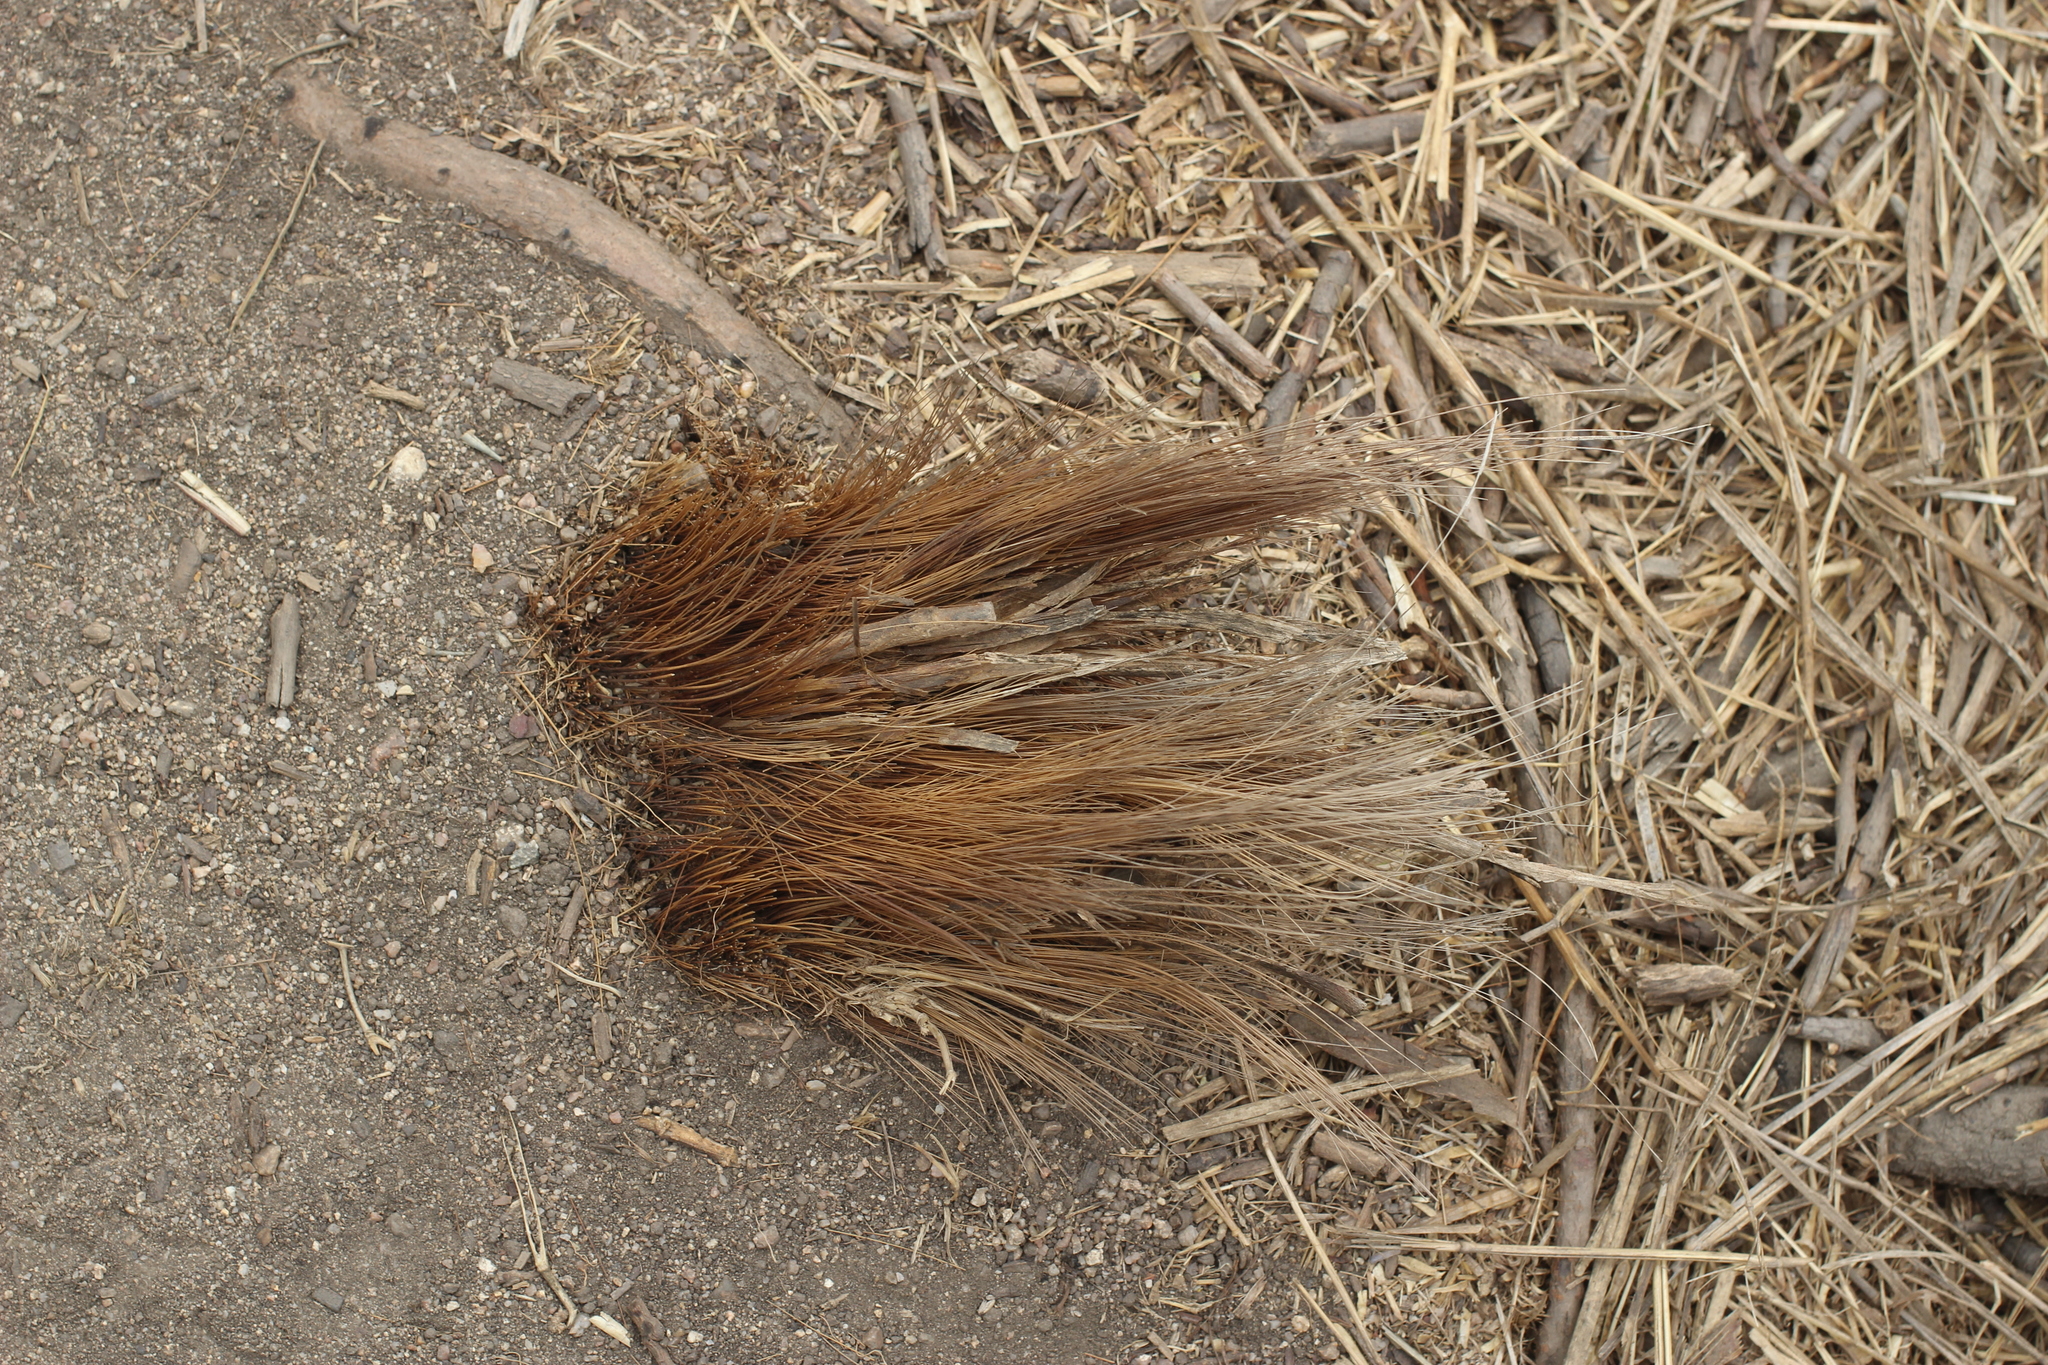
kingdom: Plantae
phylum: Tracheophyta
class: Liliopsida
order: Asparagales
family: Asparagaceae
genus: Chlorogalum
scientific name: Chlorogalum pomeridianum
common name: Amole
